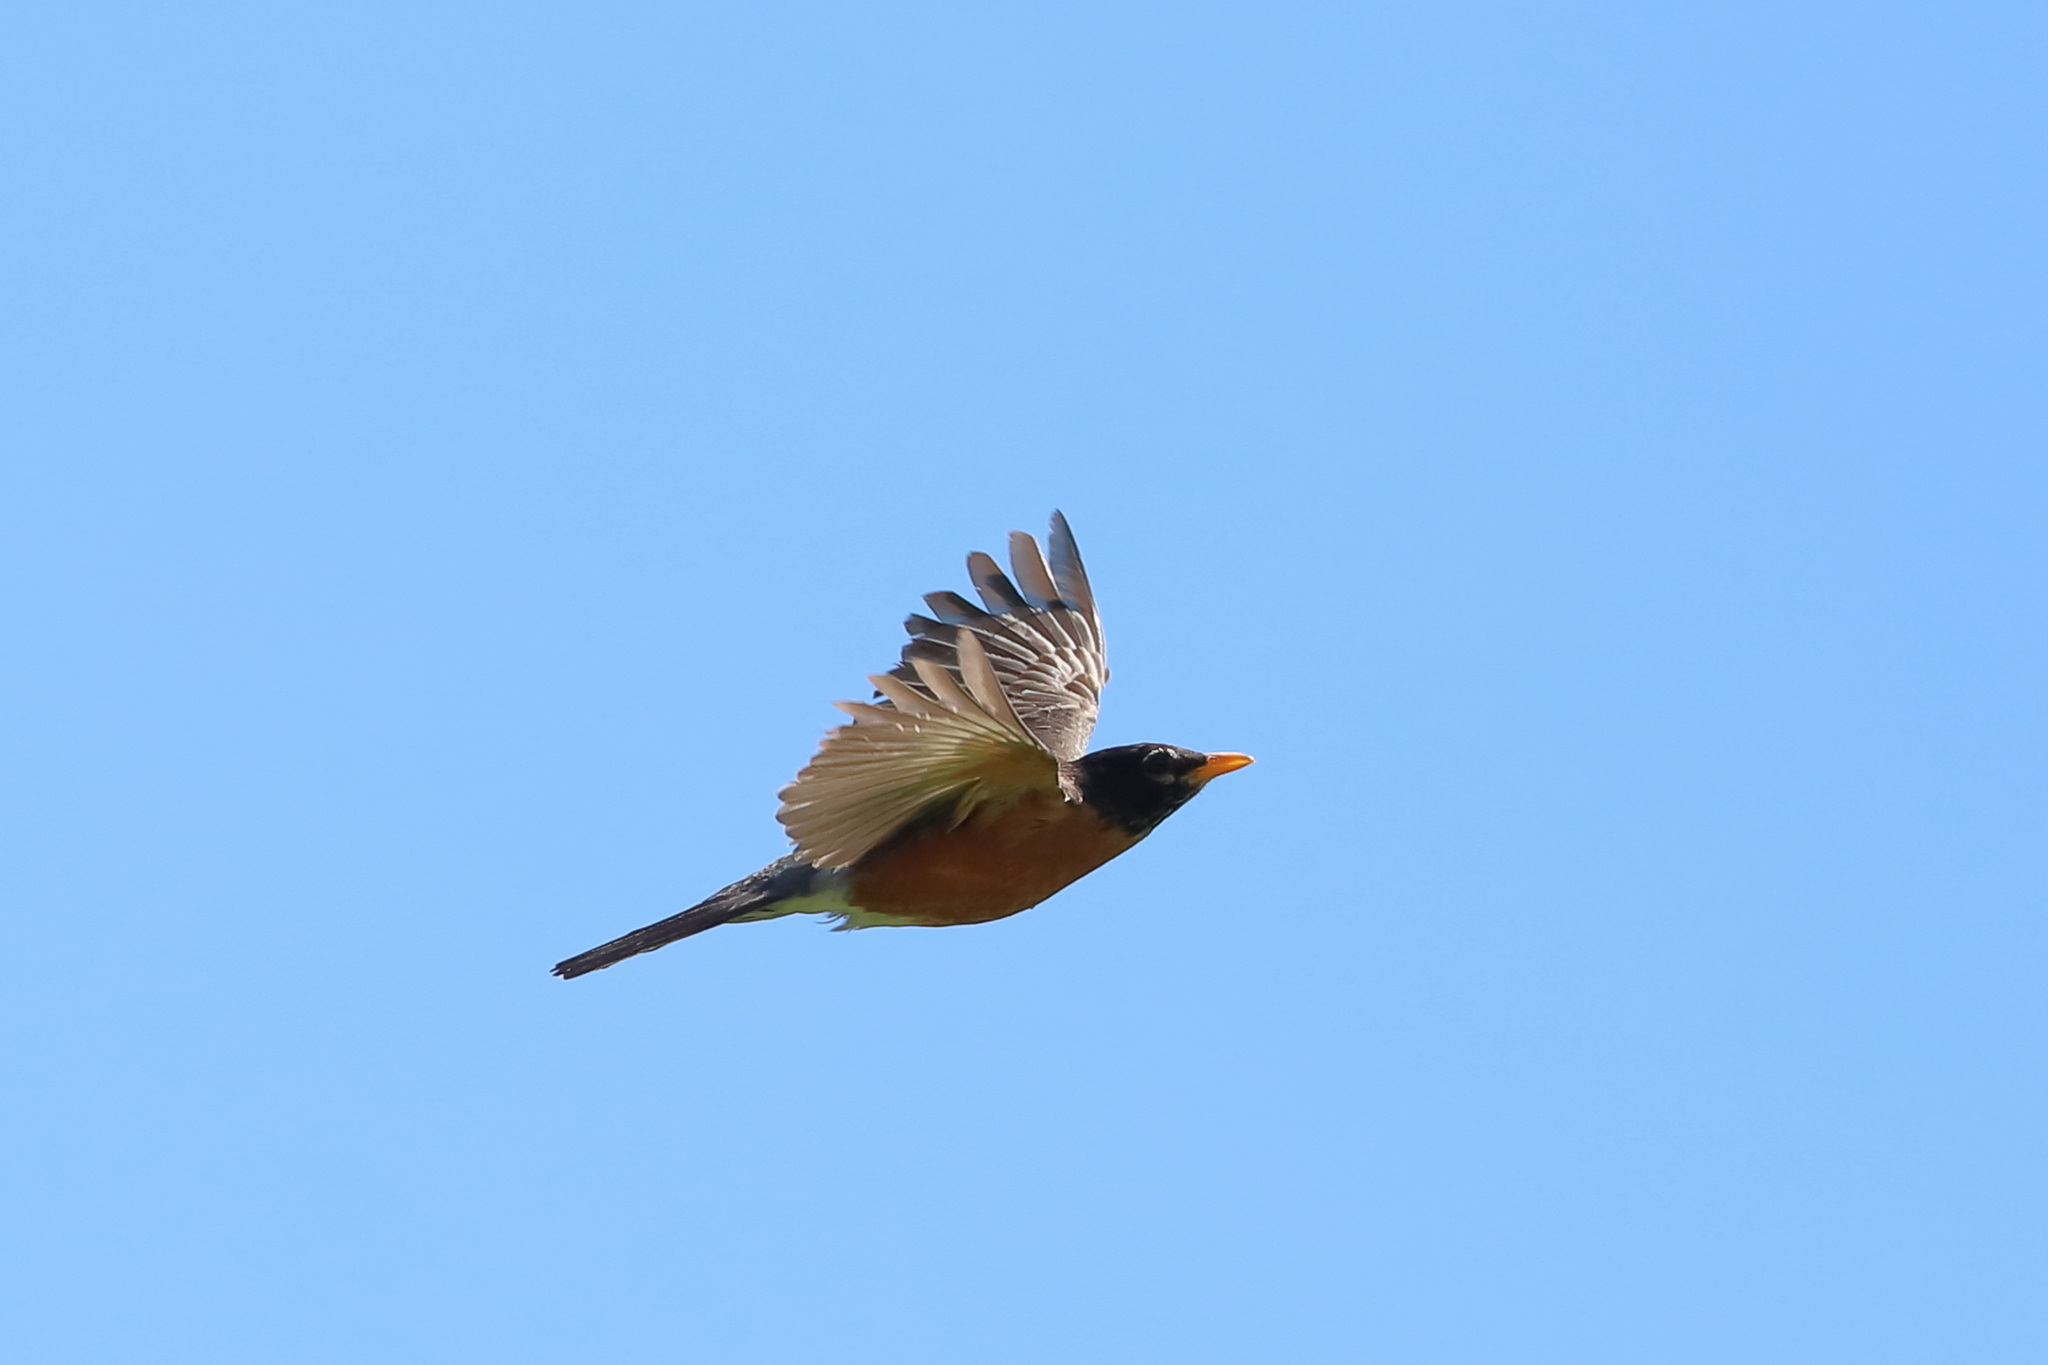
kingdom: Animalia
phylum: Chordata
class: Aves
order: Passeriformes
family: Turdidae
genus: Turdus
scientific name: Turdus migratorius
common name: American robin
